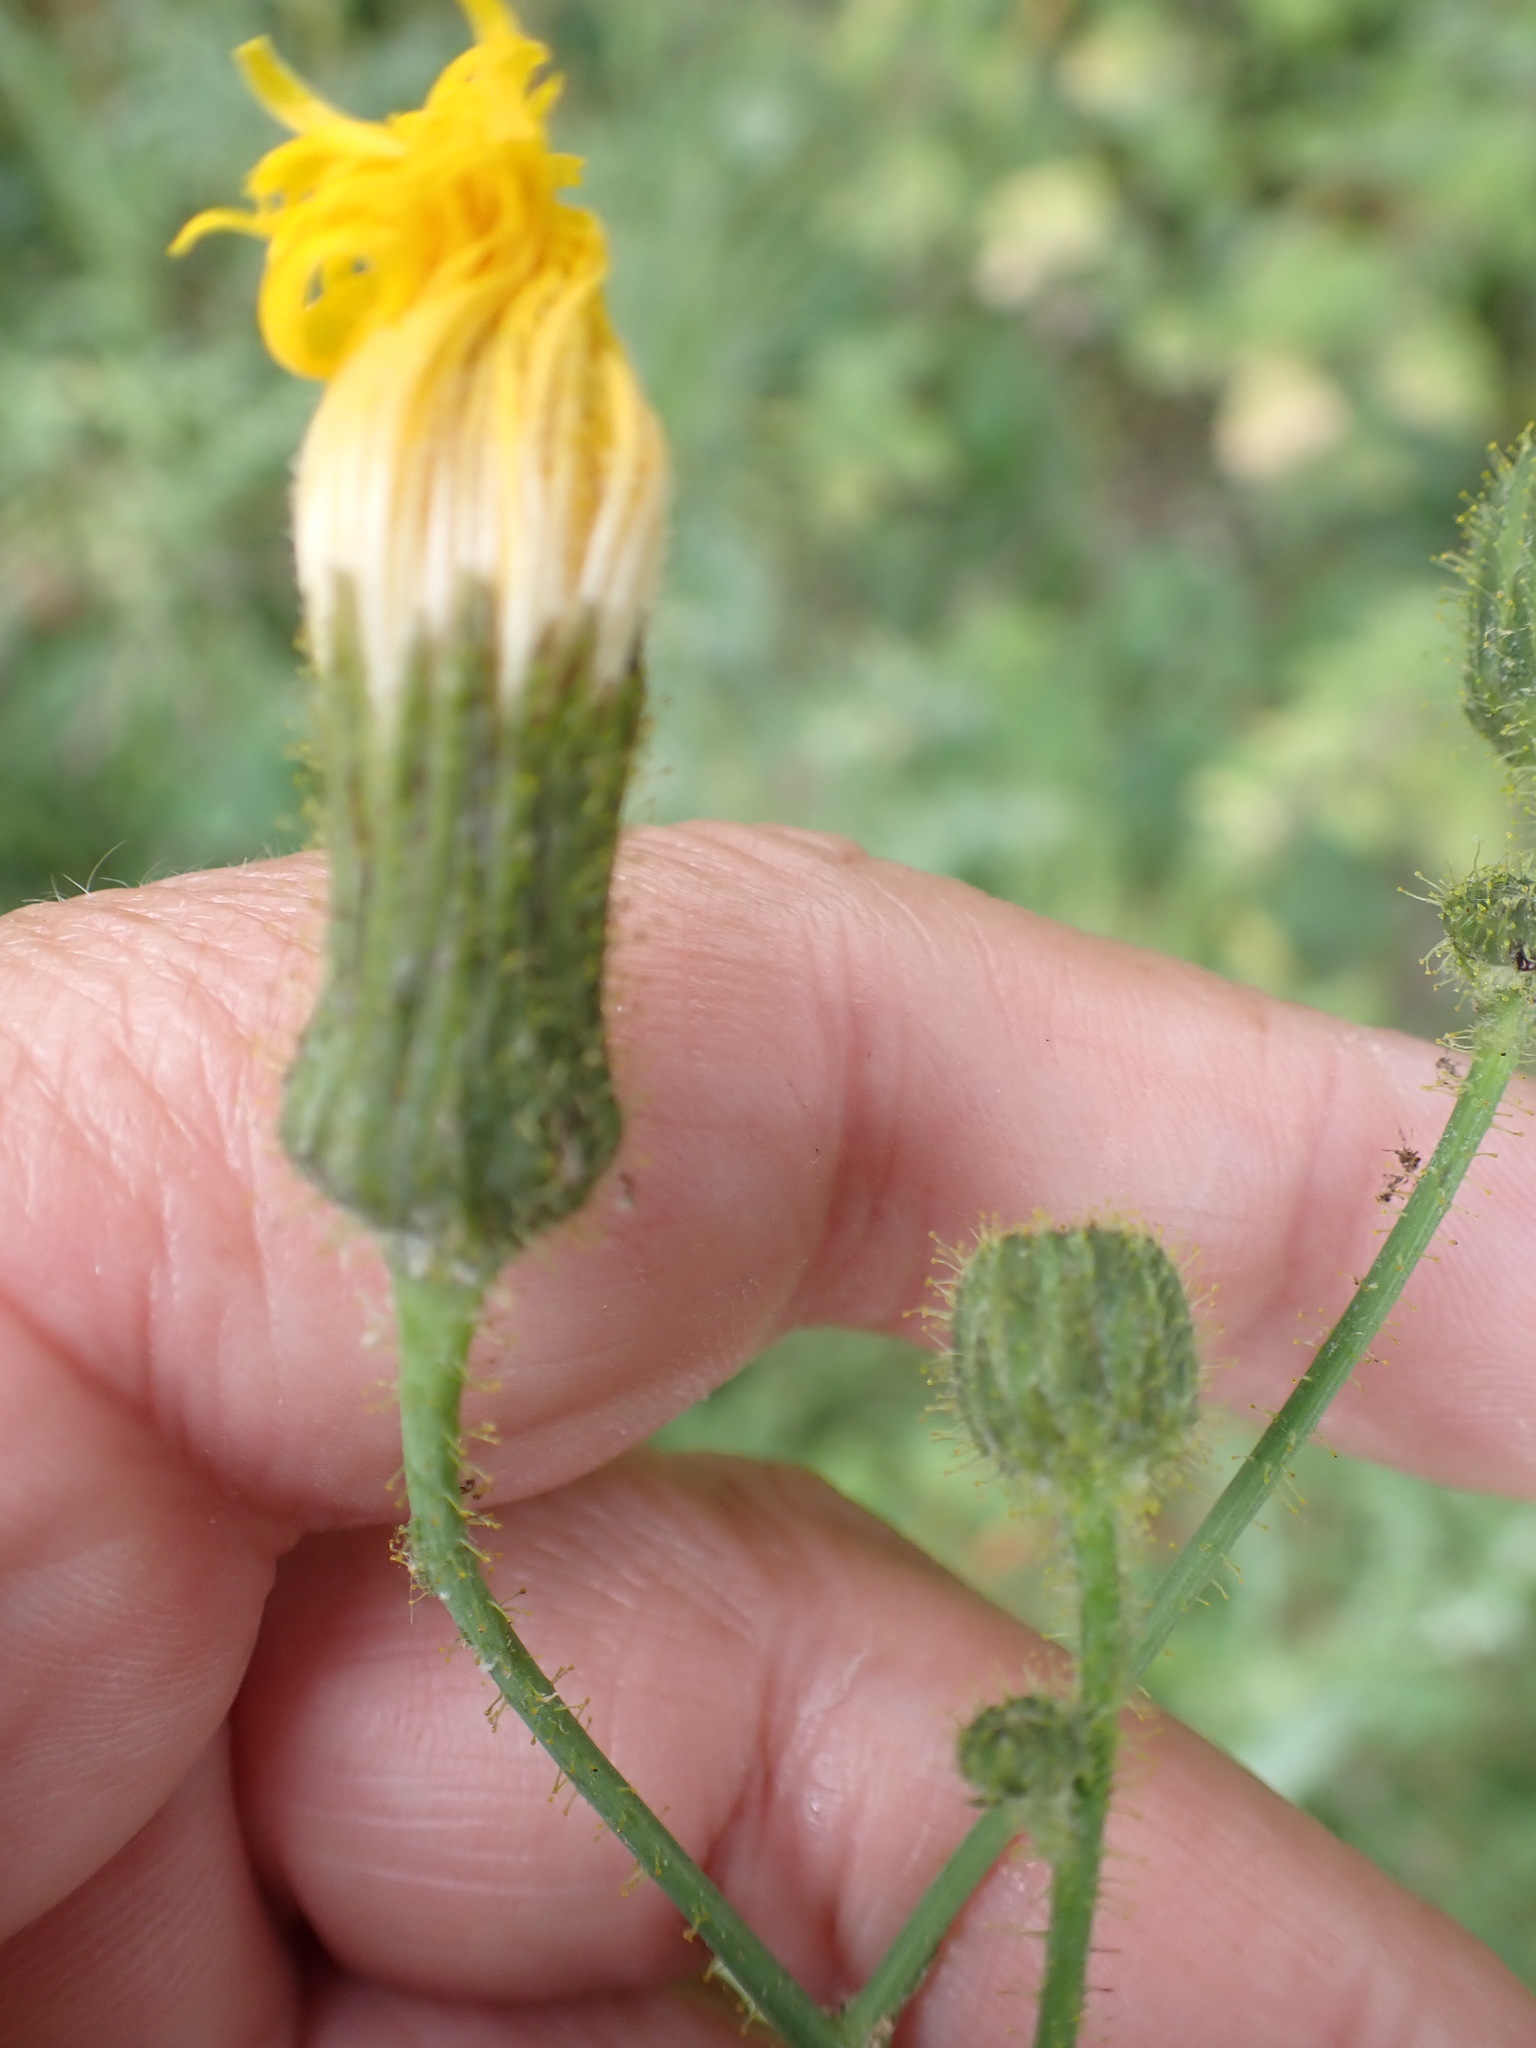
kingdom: Plantae
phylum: Tracheophyta
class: Magnoliopsida
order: Asterales
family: Asteraceae
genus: Sonchus
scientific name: Sonchus arvensis
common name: Perennial sow-thistle
